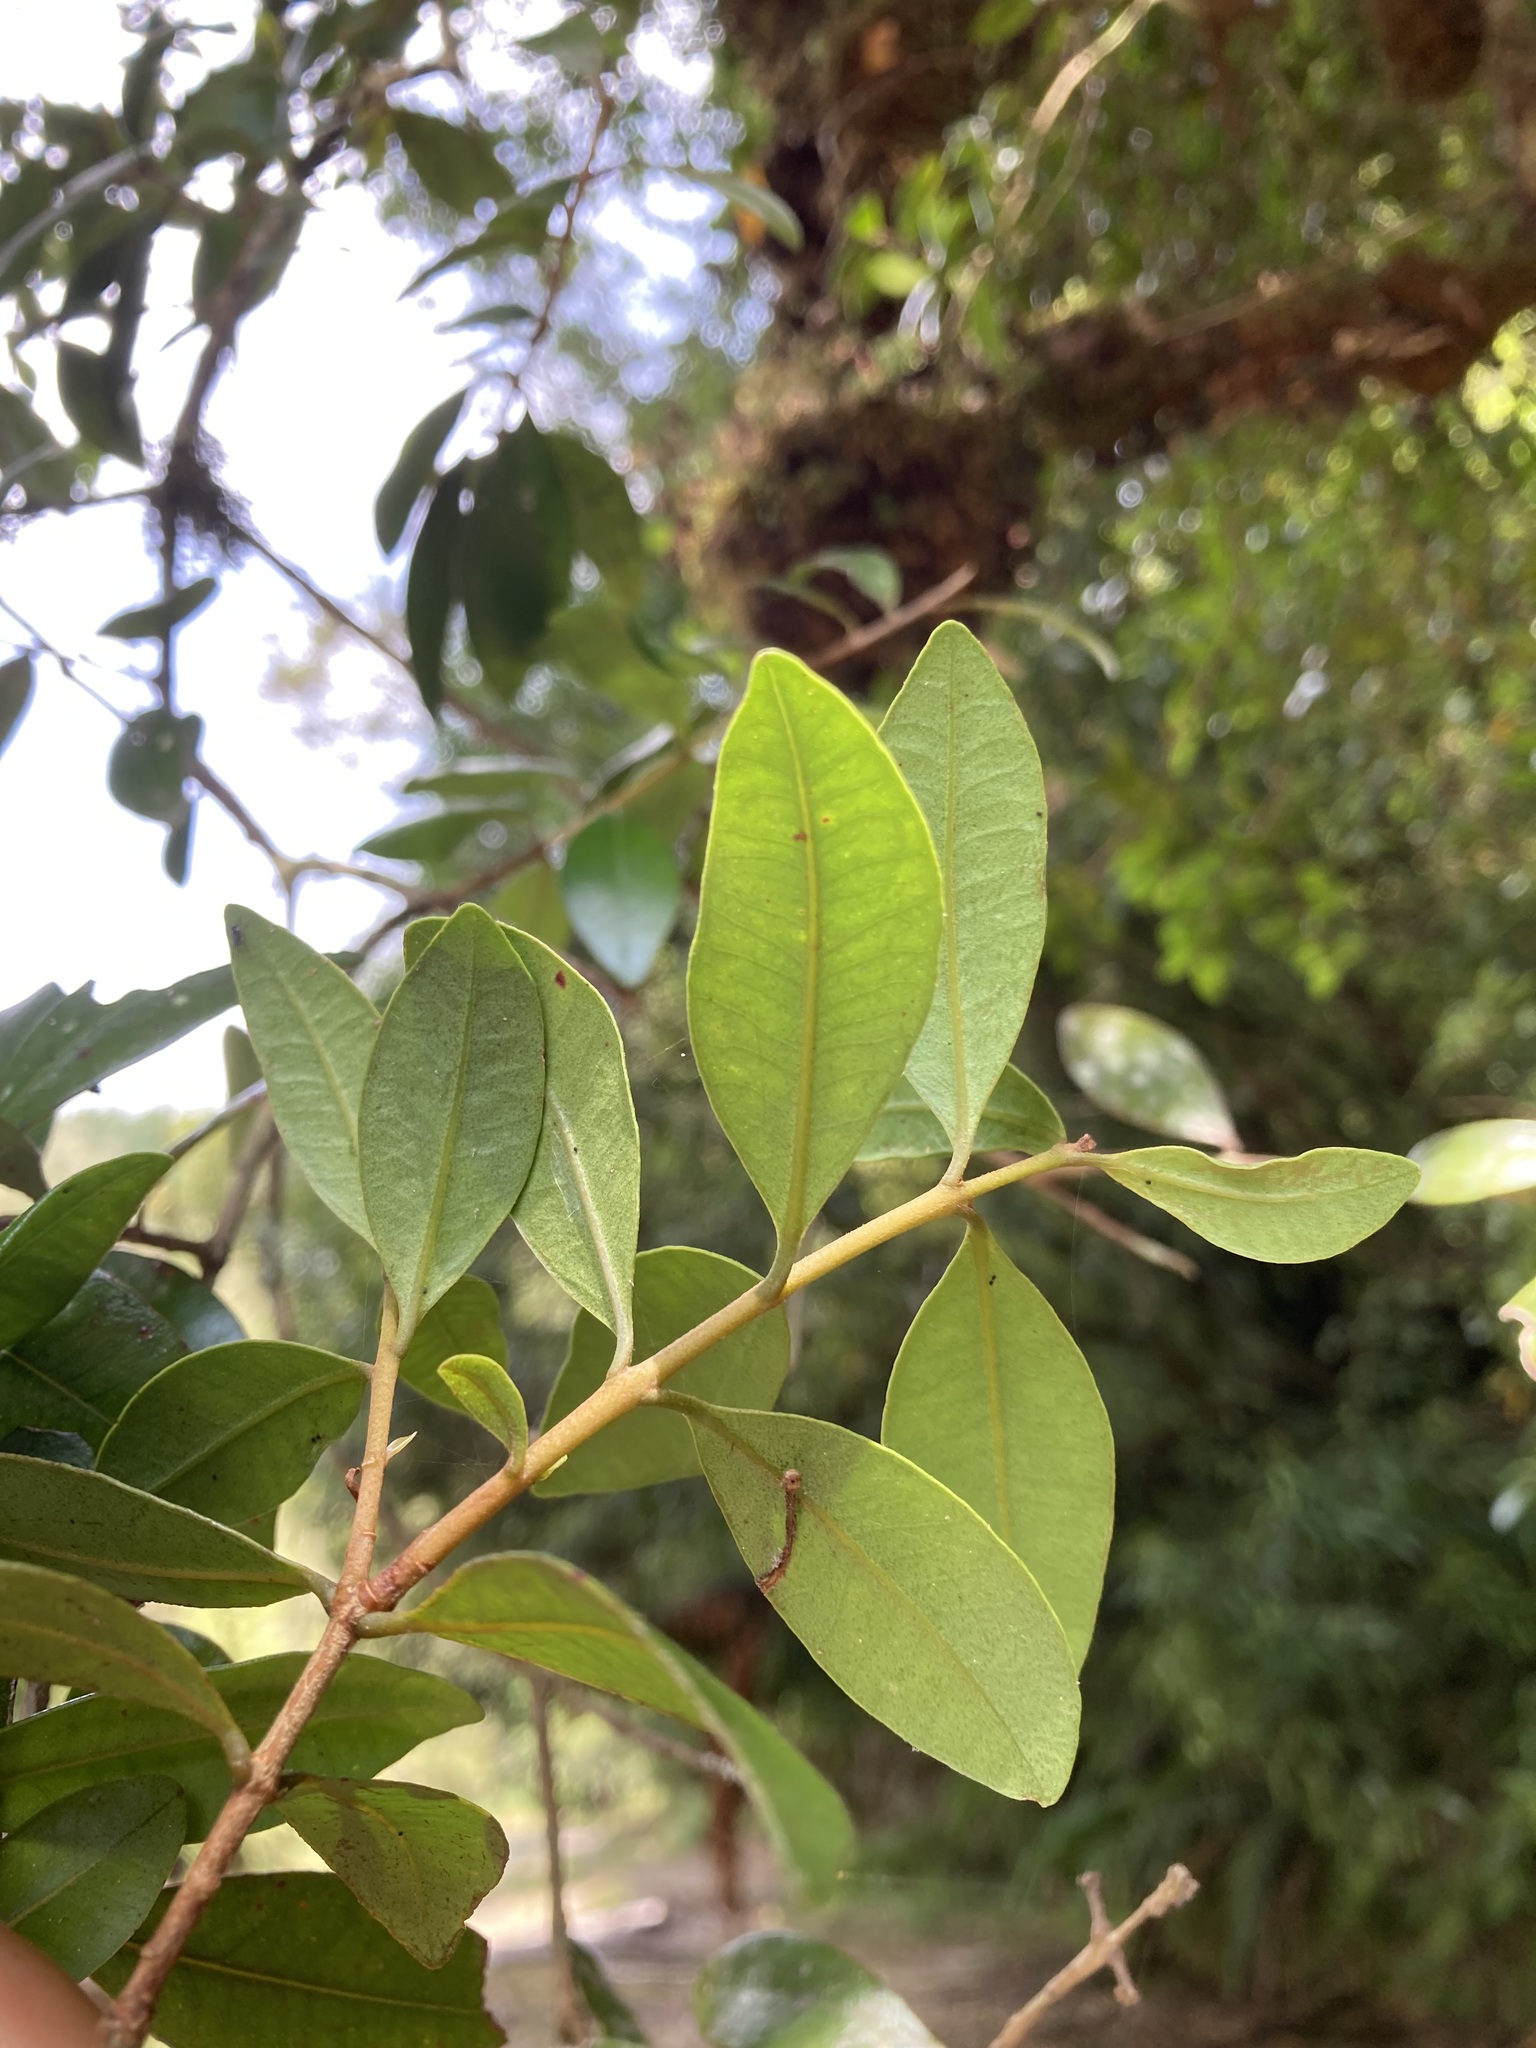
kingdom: Plantae
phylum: Tracheophyta
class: Magnoliopsida
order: Myrtales
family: Myrtaceae
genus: Metrosideros
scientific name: Metrosideros fulgens
